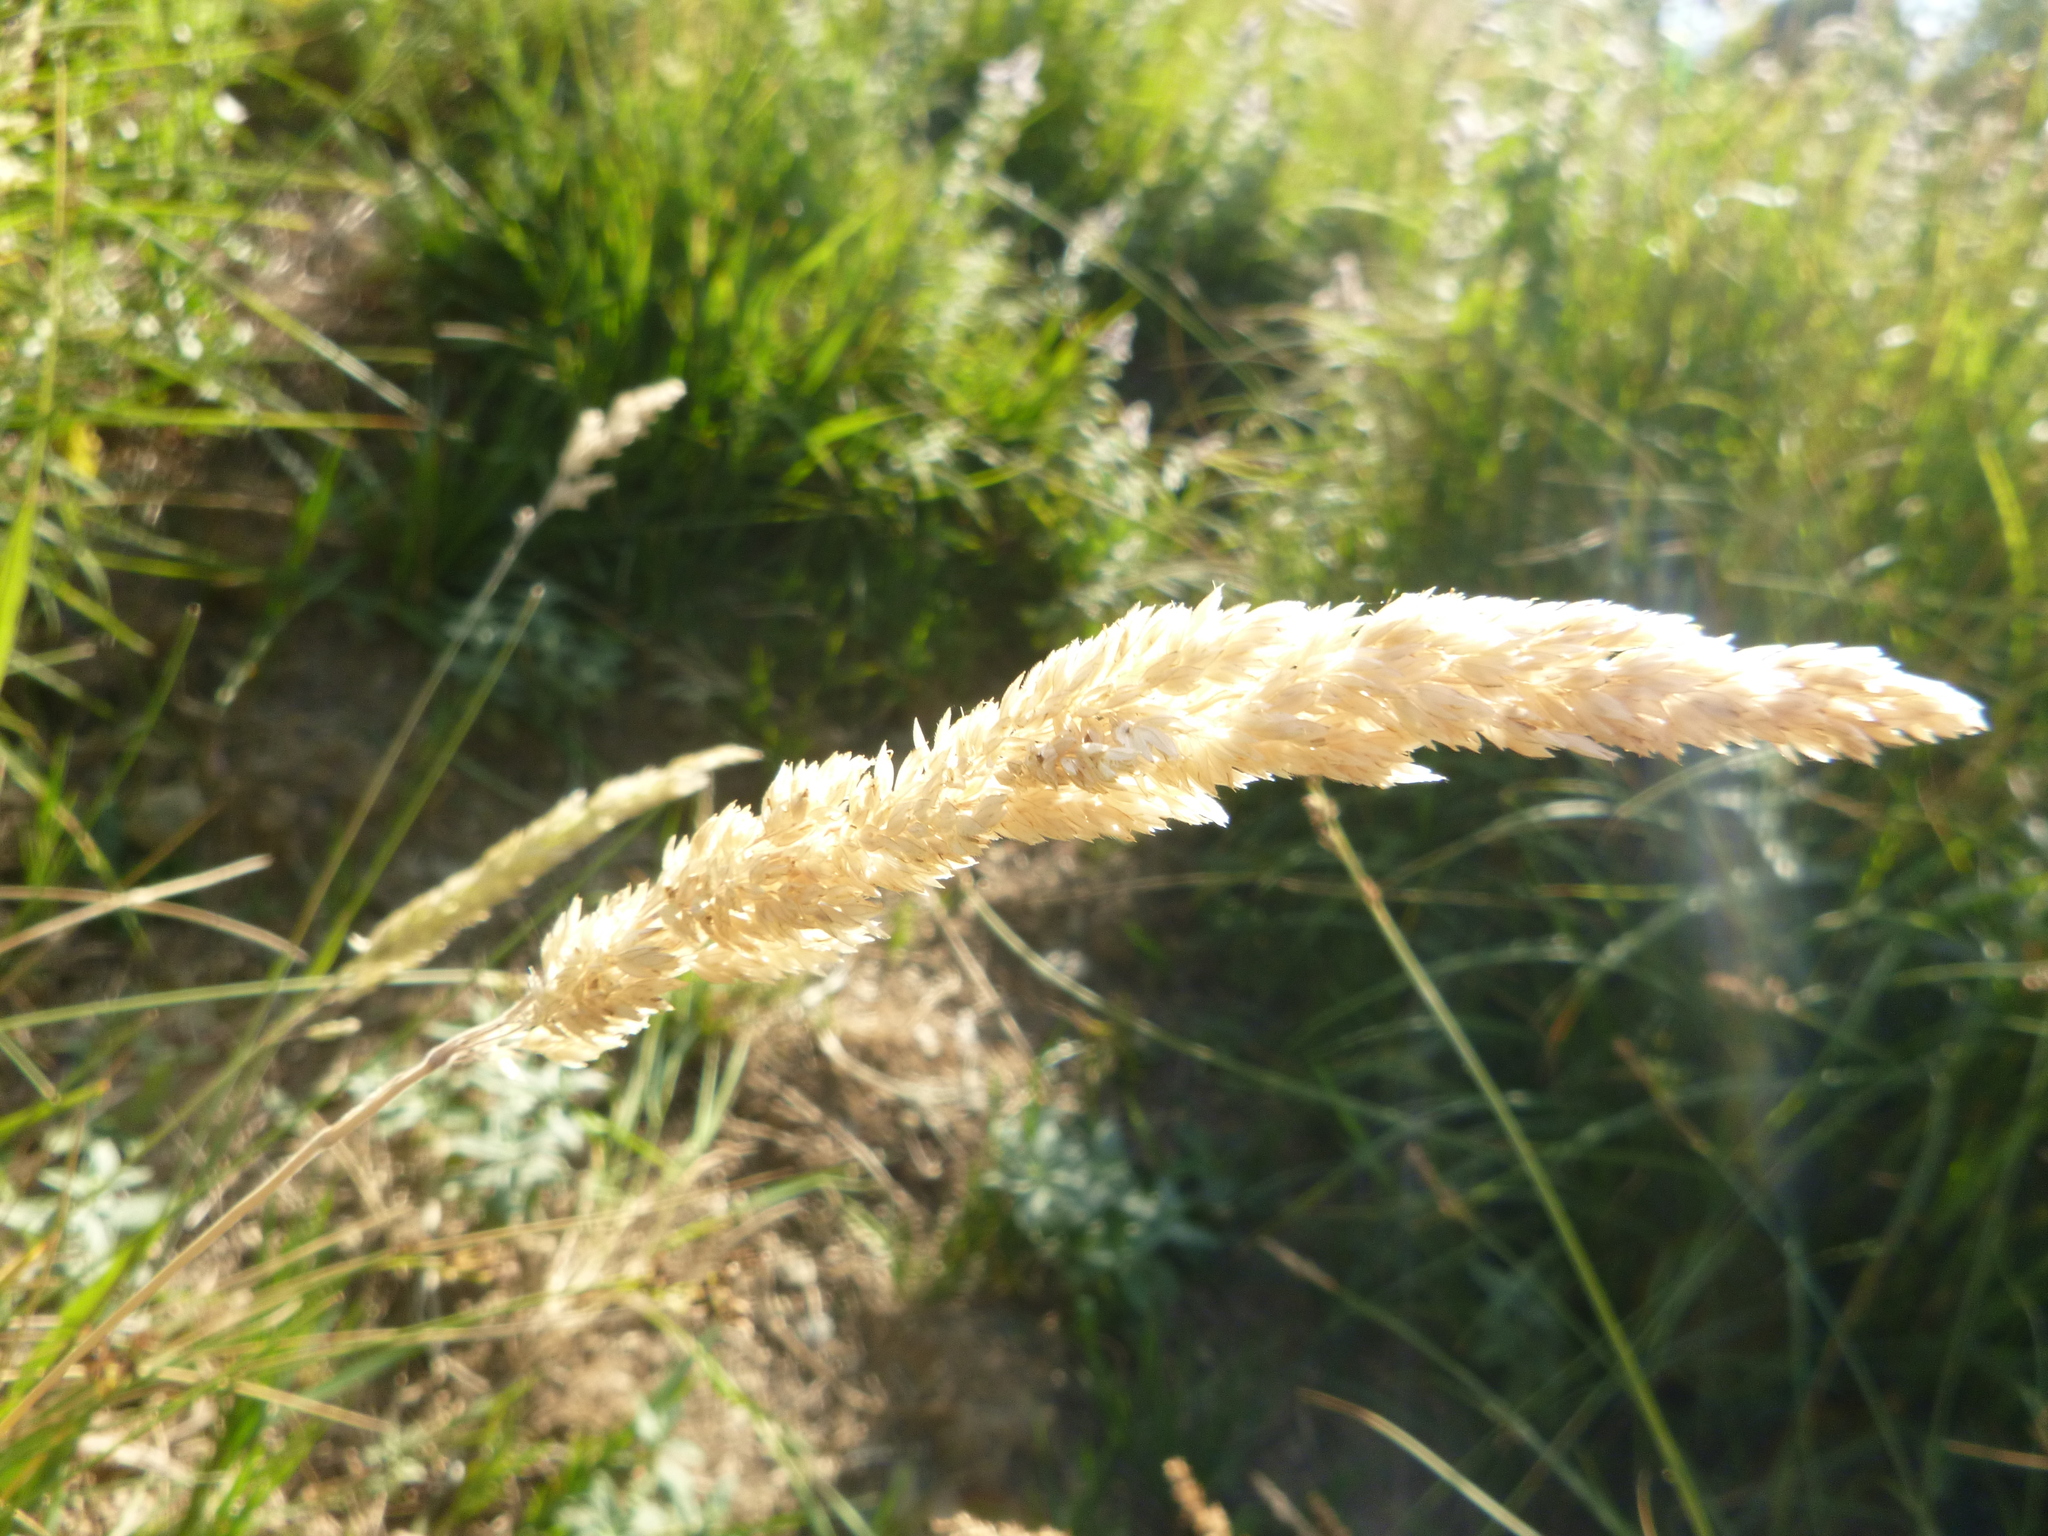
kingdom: Plantae
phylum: Tracheophyta
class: Liliopsida
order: Poales
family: Poaceae
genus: Holcus
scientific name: Holcus lanatus
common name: Yorkshire-fog
